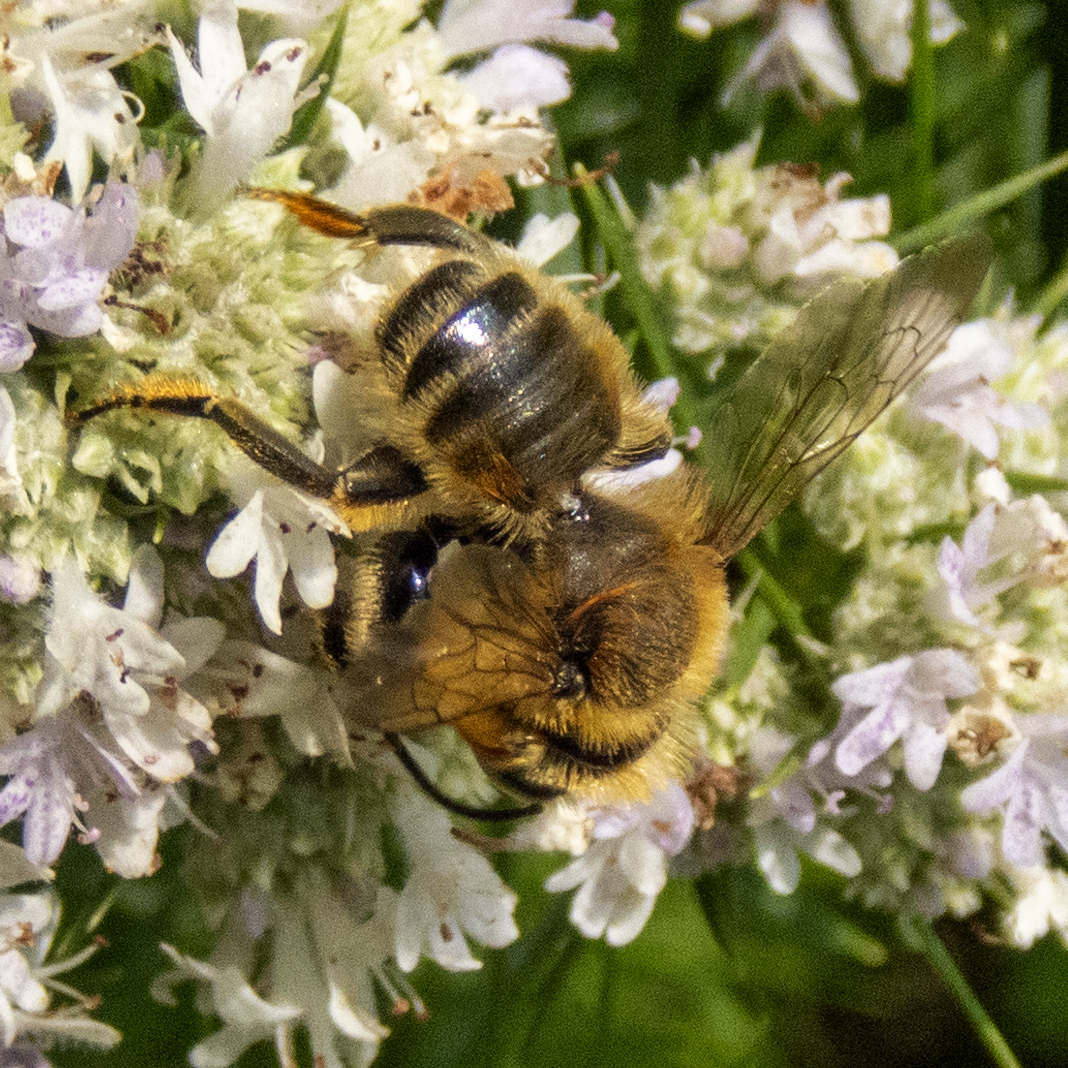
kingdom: Animalia
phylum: Arthropoda
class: Insecta
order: Hymenoptera
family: Megachilidae
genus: Megachile
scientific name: Megachile latimanus
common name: Leafcutting bee
